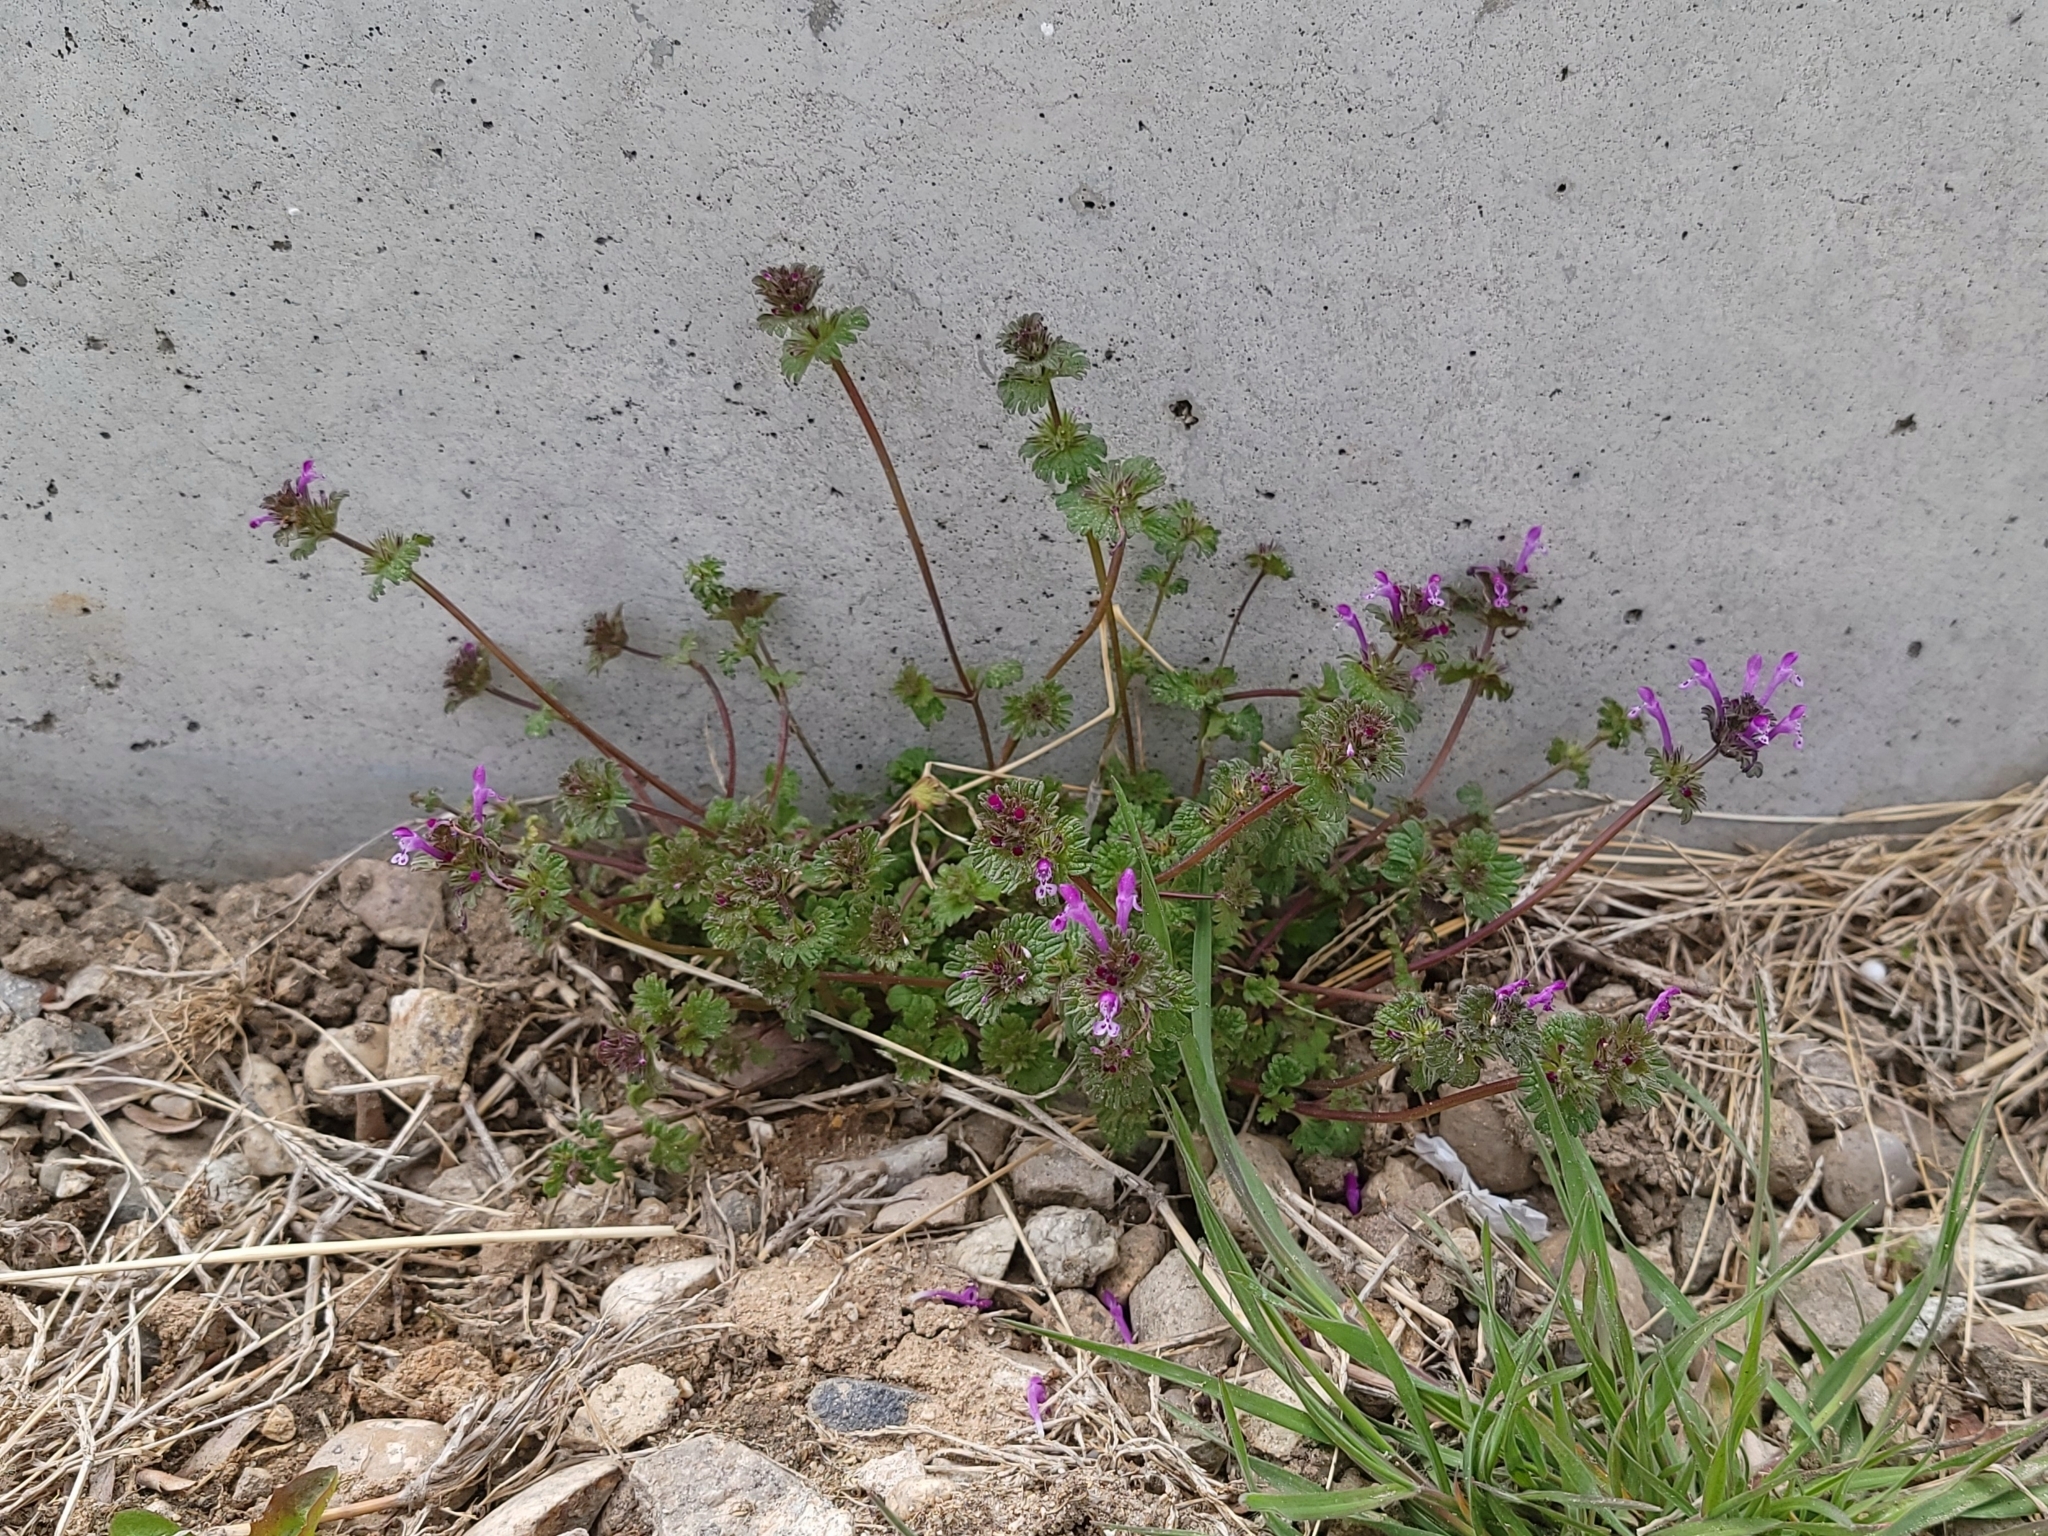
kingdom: Plantae
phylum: Tracheophyta
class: Magnoliopsida
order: Lamiales
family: Lamiaceae
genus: Lamium
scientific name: Lamium amplexicaule
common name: Henbit dead-nettle
